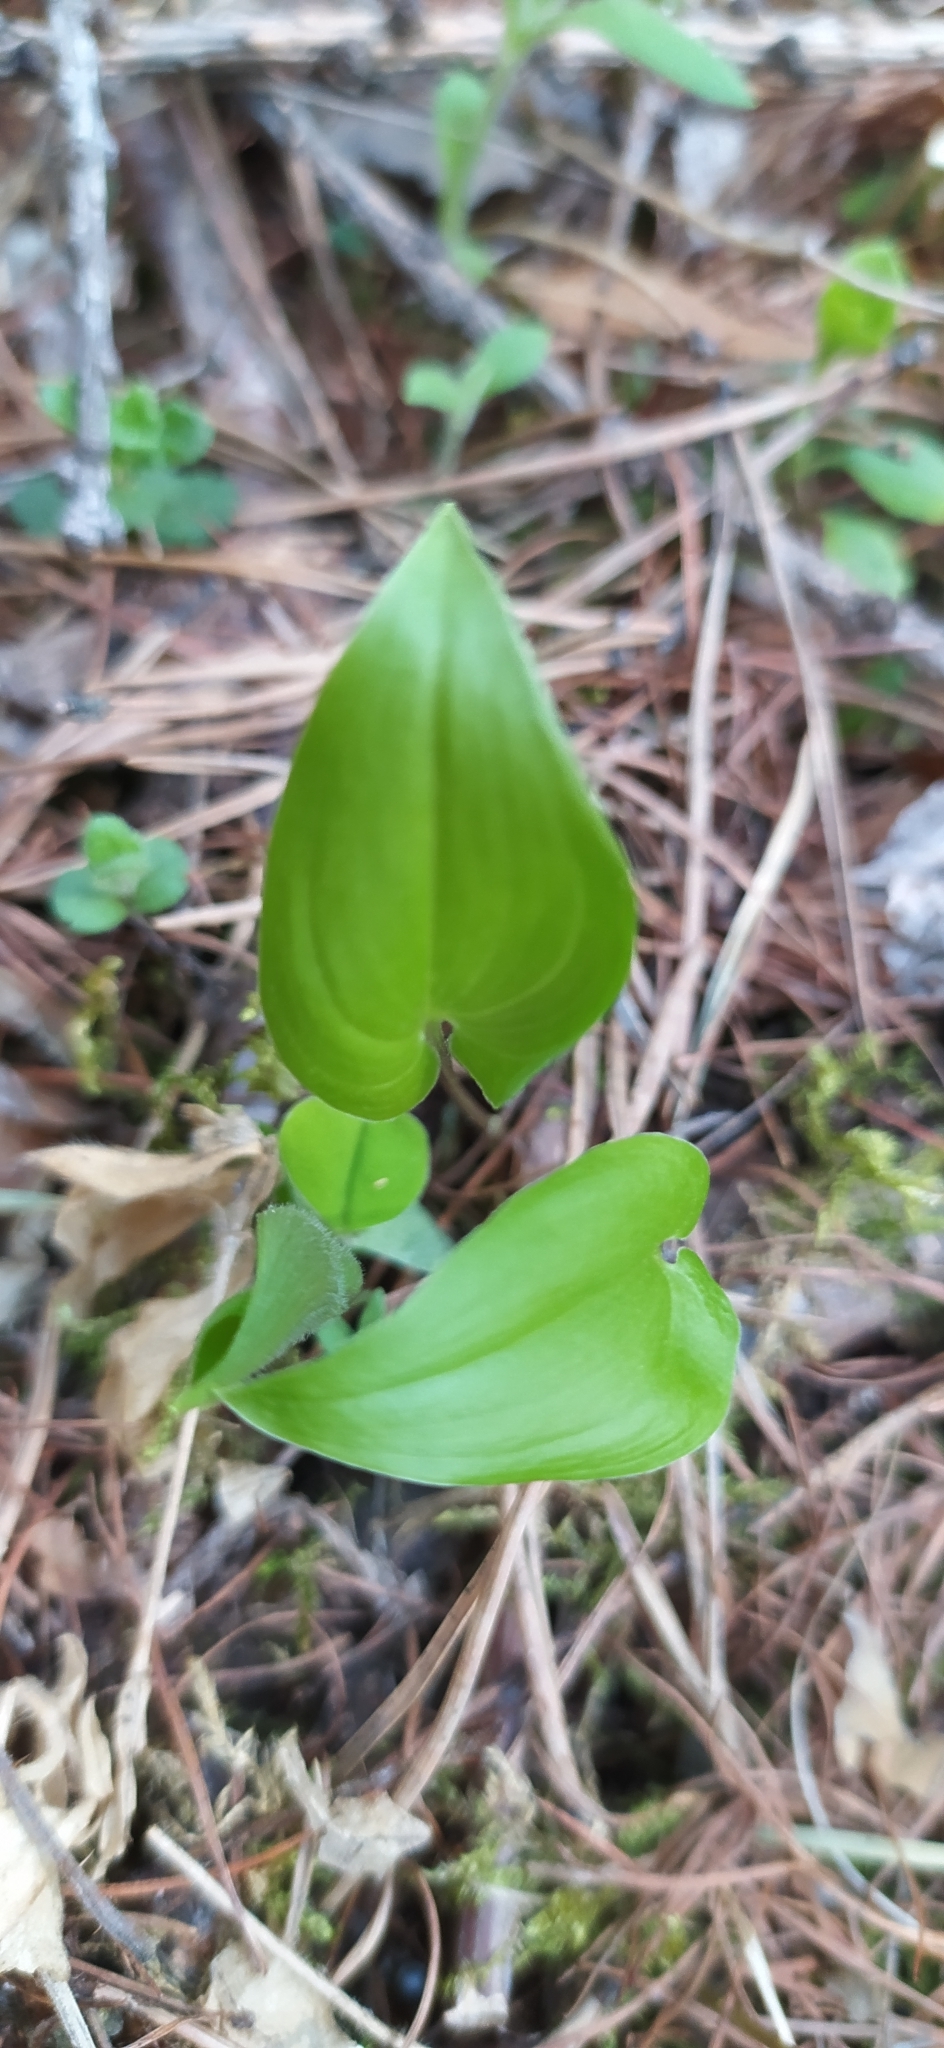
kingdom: Plantae
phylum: Tracheophyta
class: Liliopsida
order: Asparagales
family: Asparagaceae
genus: Maianthemum
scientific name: Maianthemum bifolium
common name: May lily
